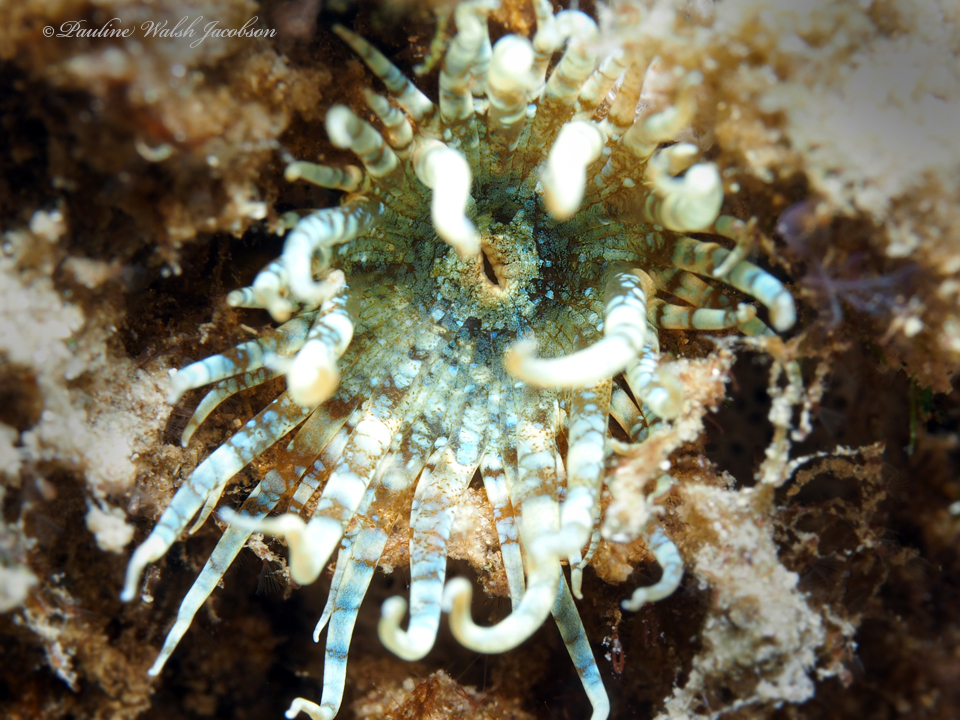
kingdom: Animalia
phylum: Cnidaria
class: Anthozoa
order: Actiniaria
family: Aiptasiidae
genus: Exaiptasia
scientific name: Exaiptasia diaphana
